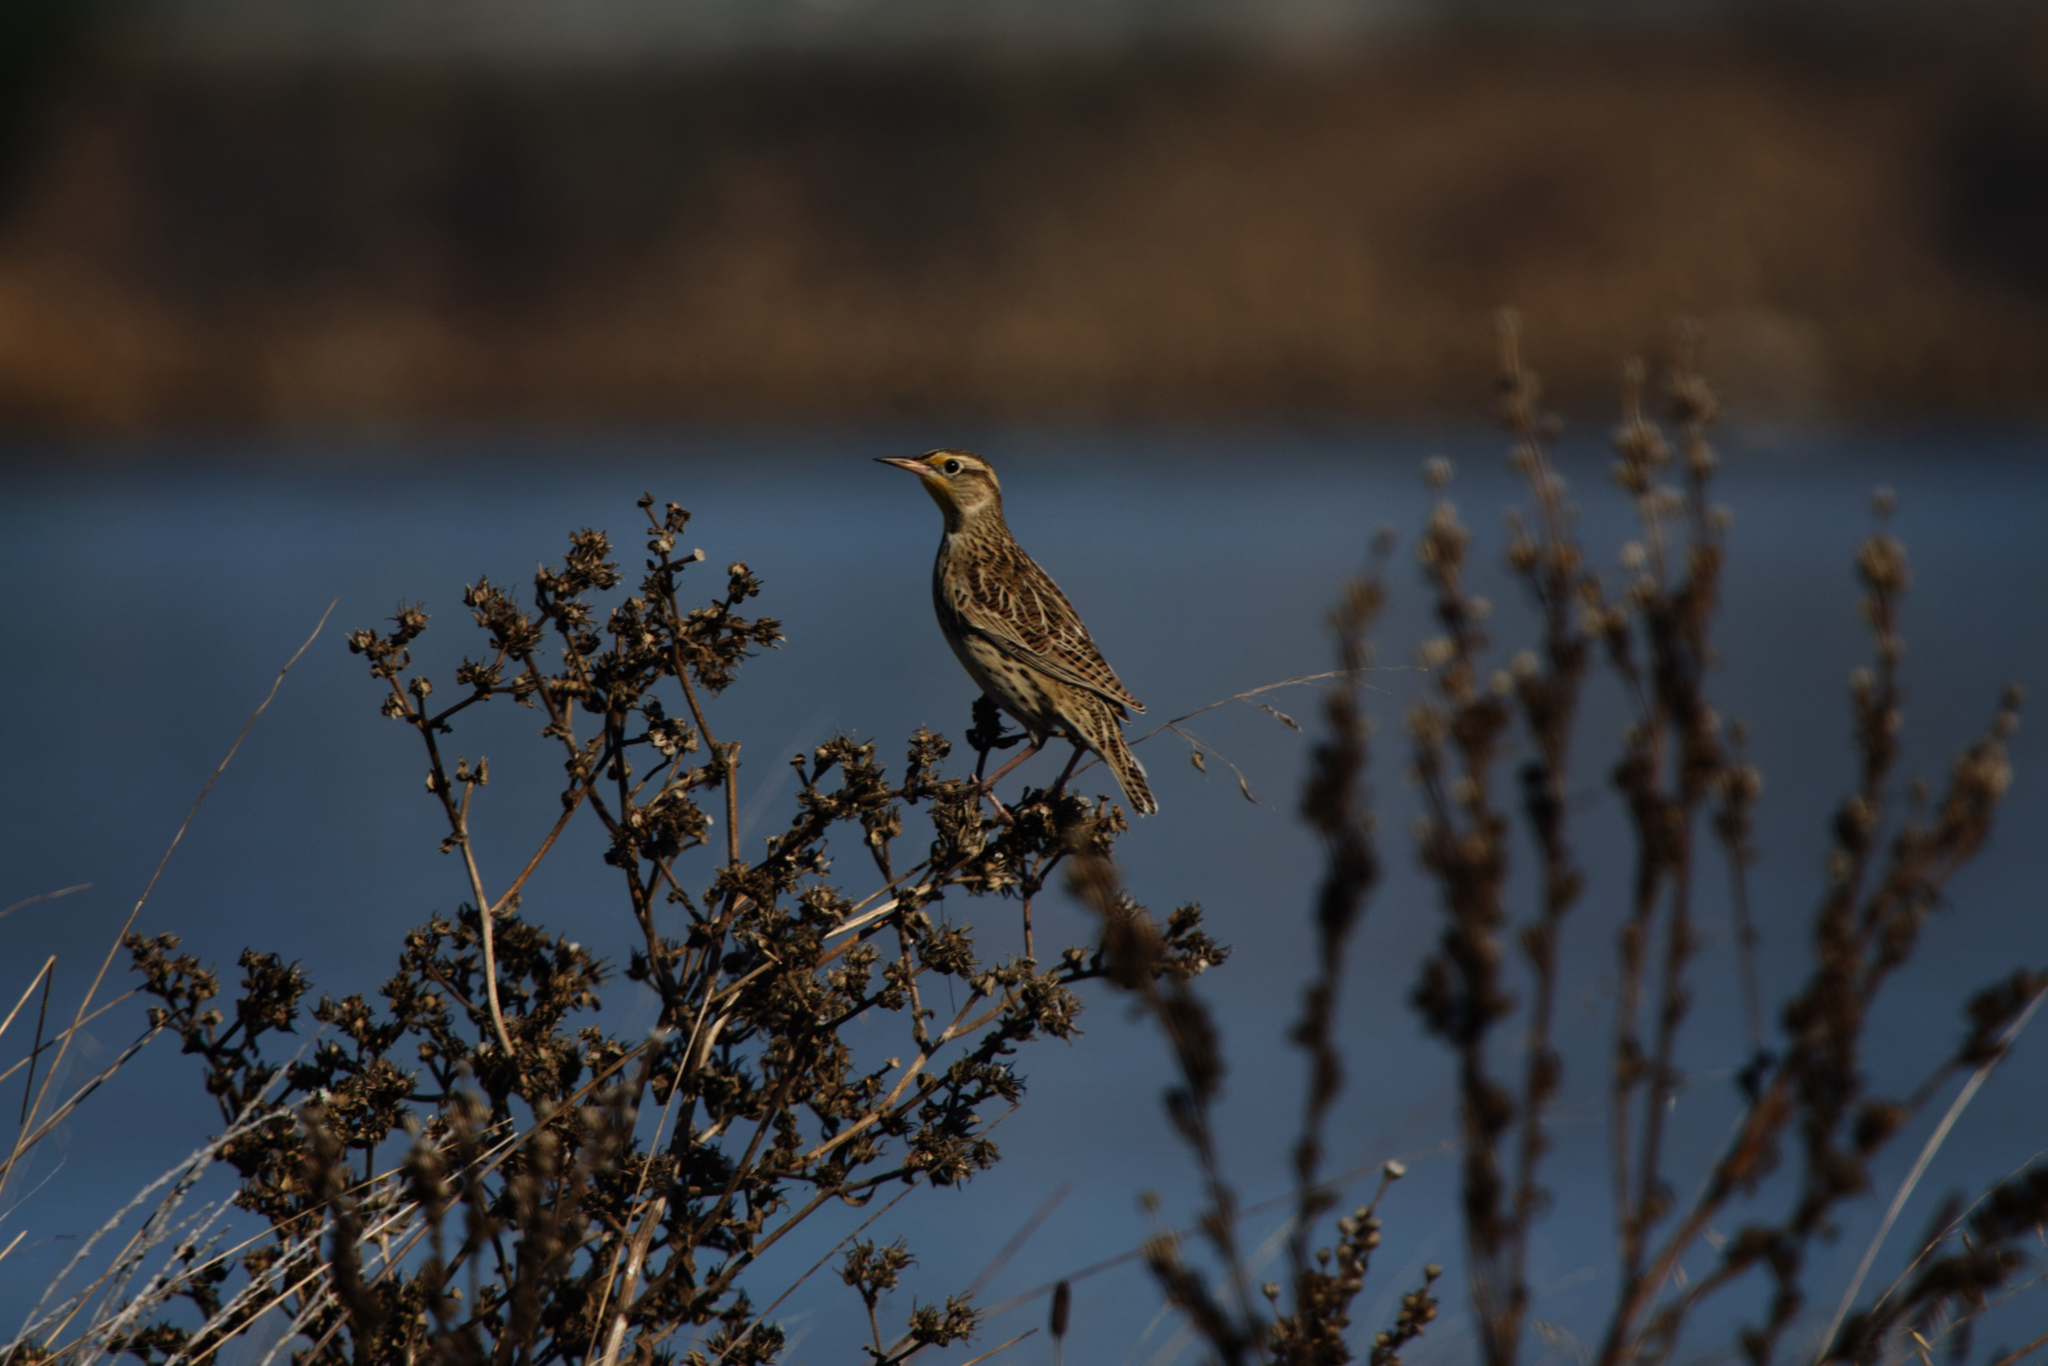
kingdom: Animalia
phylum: Chordata
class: Aves
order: Passeriformes
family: Icteridae
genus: Sturnella
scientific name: Sturnella neglecta
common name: Western meadowlark
